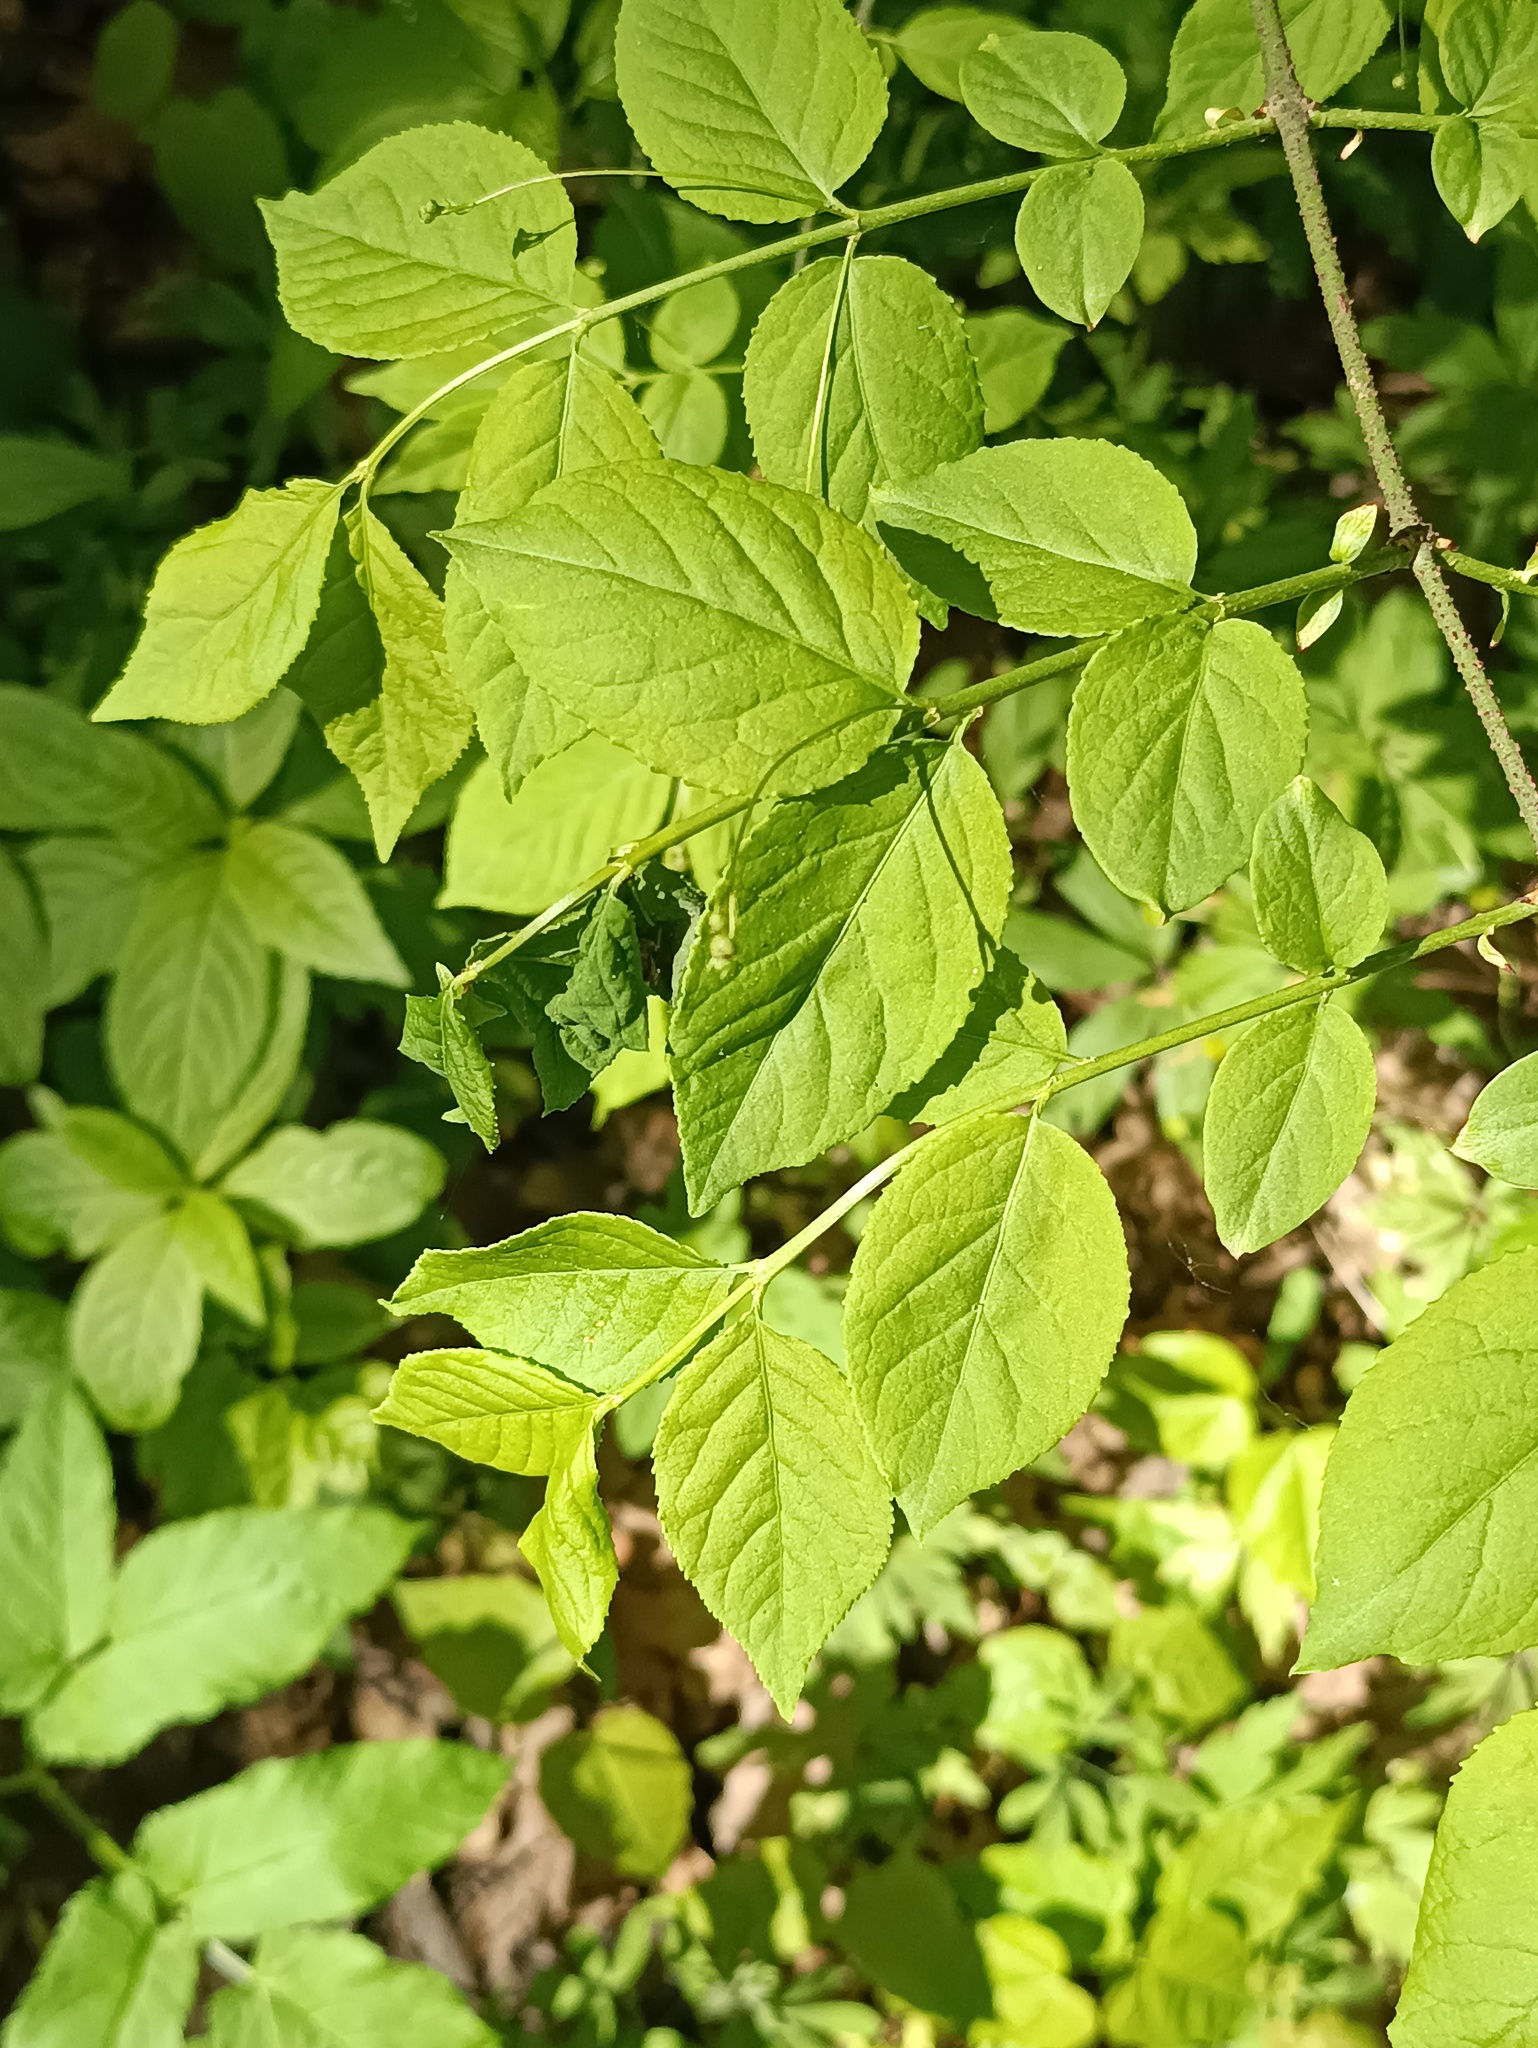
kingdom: Plantae
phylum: Tracheophyta
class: Magnoliopsida
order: Celastrales
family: Celastraceae
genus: Euonymus
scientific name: Euonymus verrucosus
